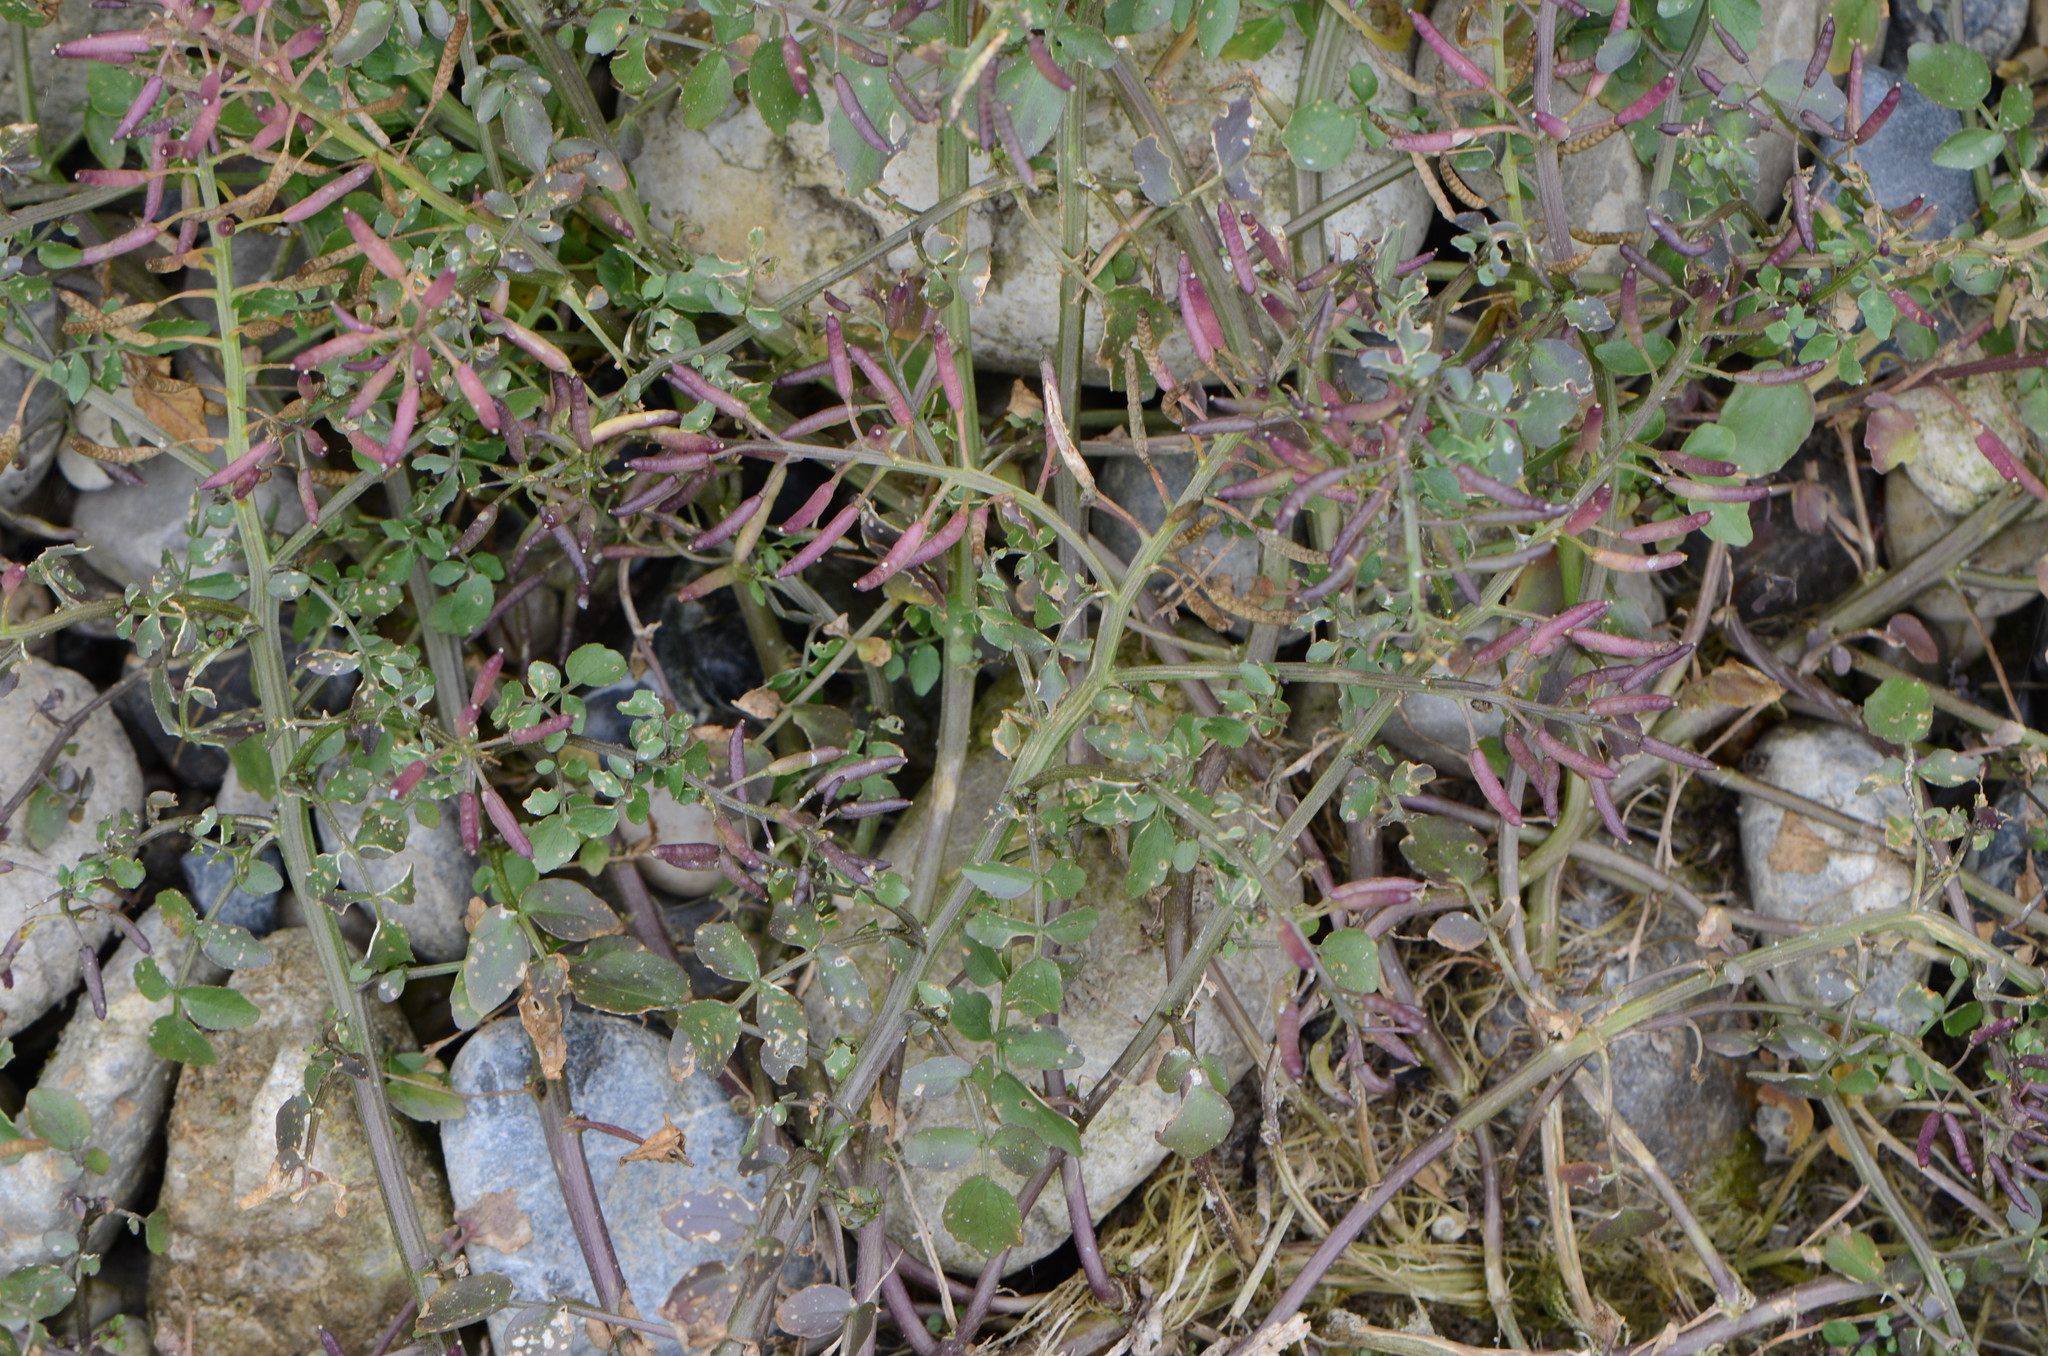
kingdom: Plantae
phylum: Tracheophyta
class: Magnoliopsida
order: Brassicales
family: Brassicaceae
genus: Nasturtium
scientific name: Nasturtium officinale
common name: Watercress
